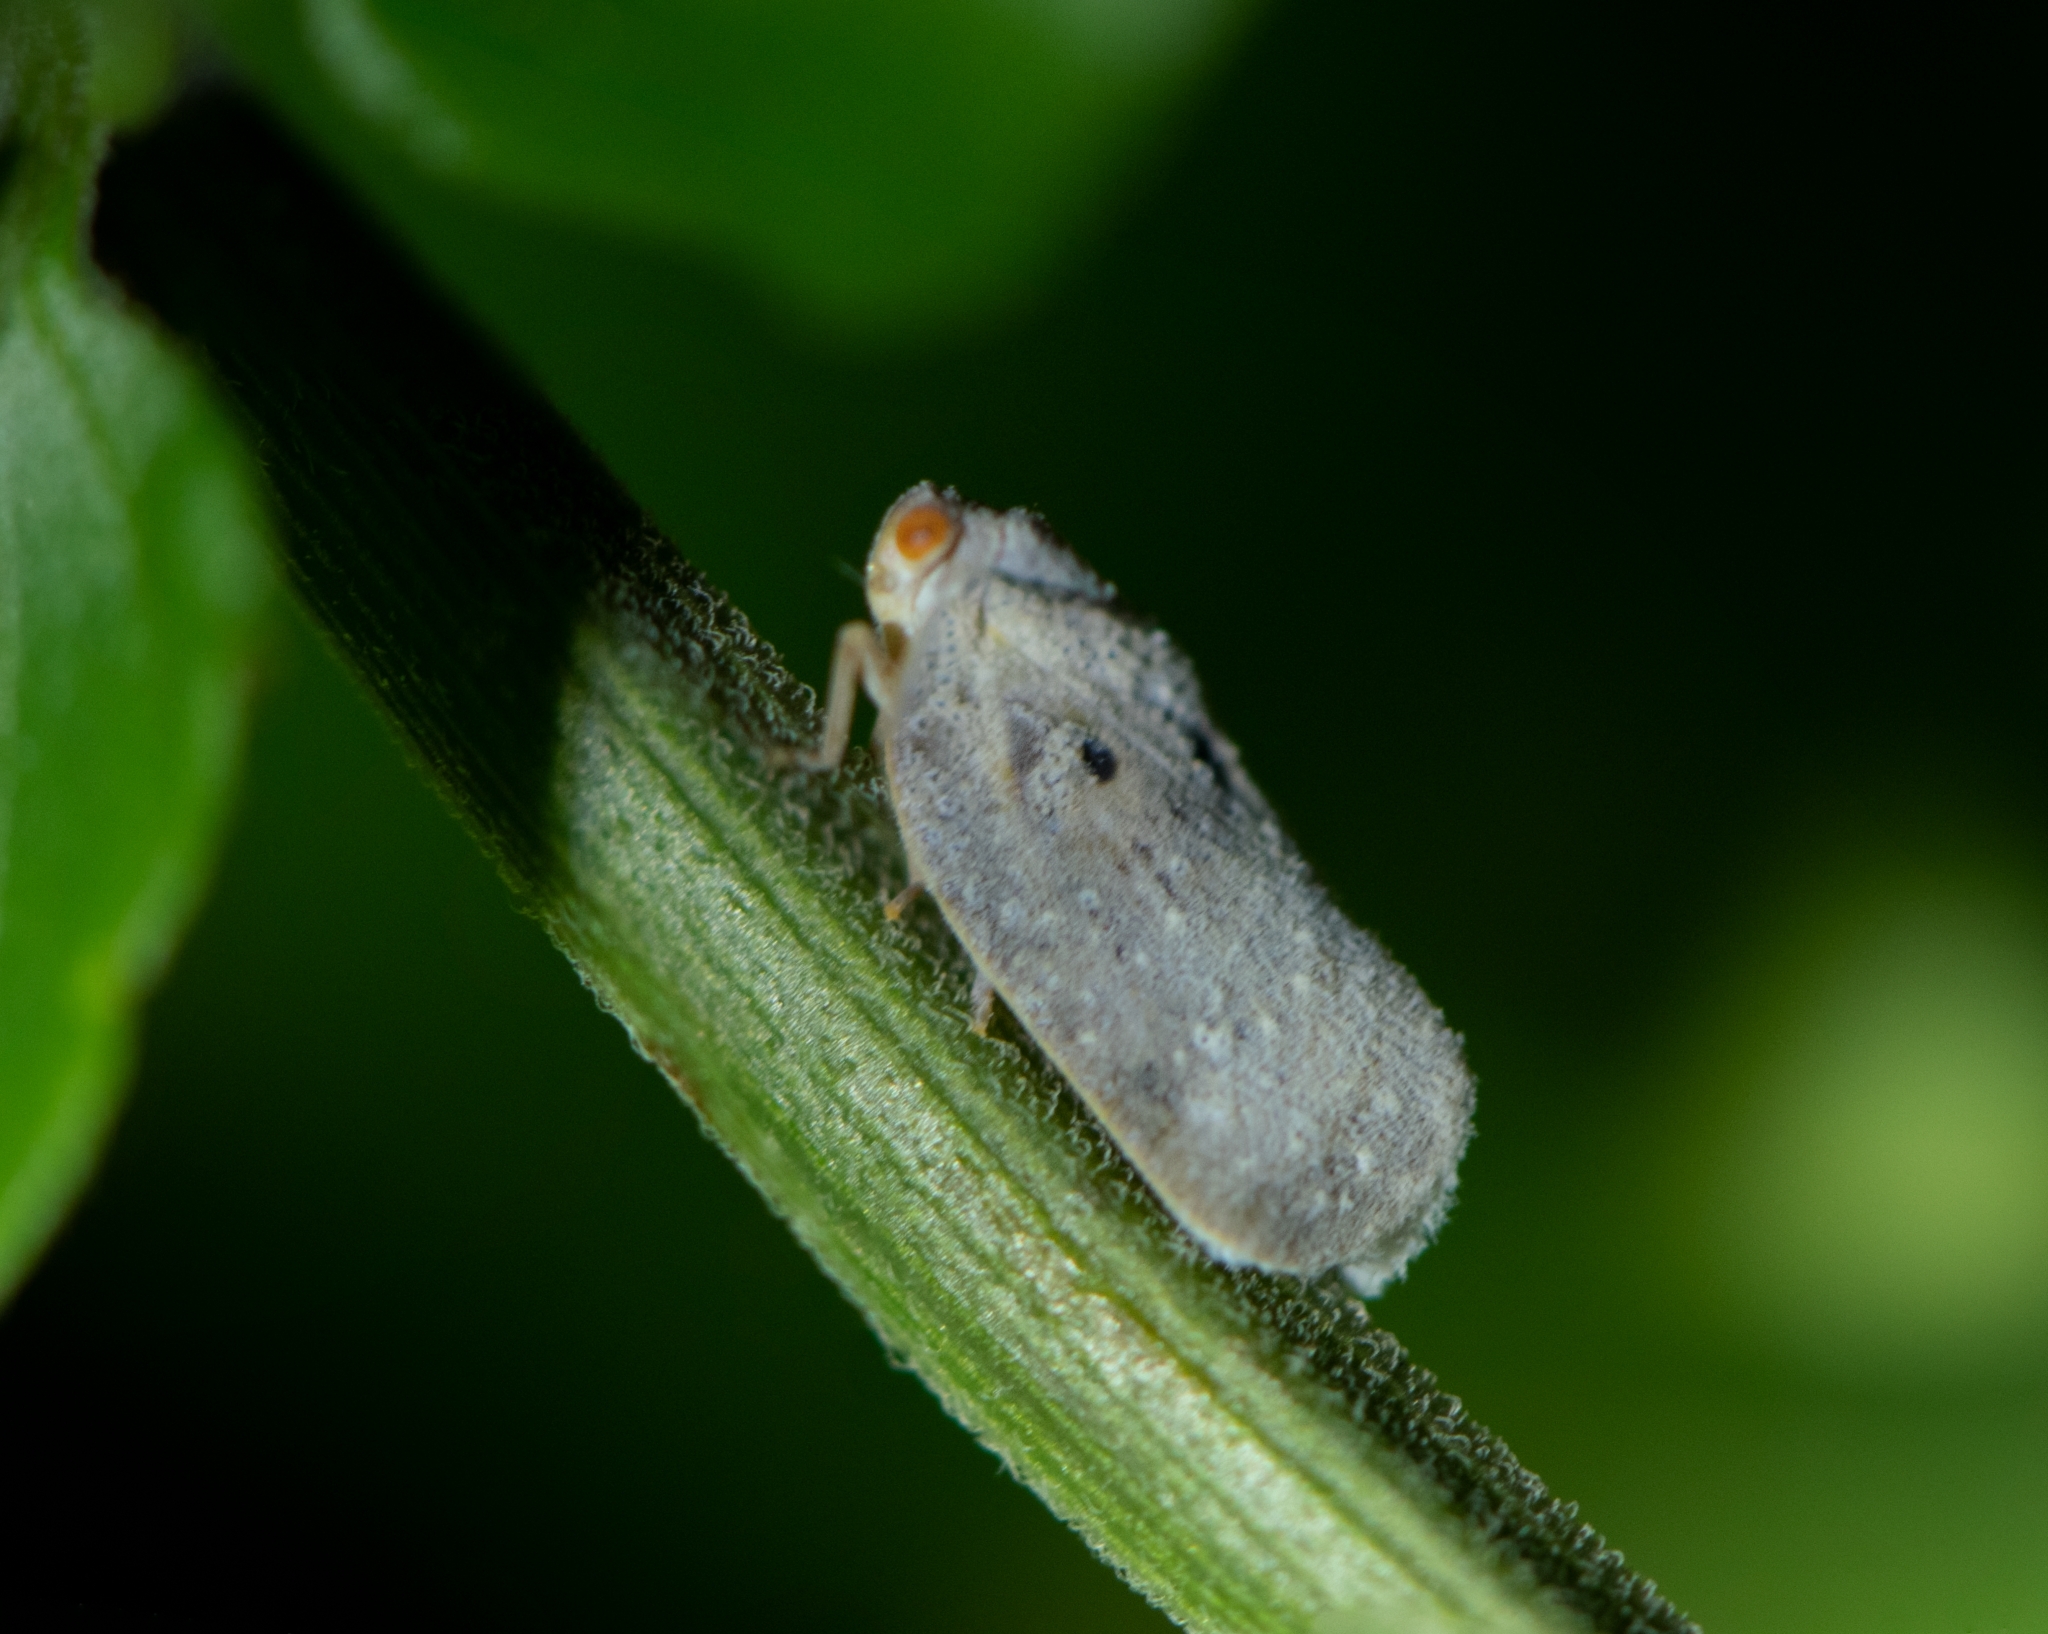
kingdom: Animalia
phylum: Arthropoda
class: Insecta
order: Hemiptera
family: Flatidae
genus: Melormenis
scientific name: Melormenis basalis
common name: Puerto rican planthopper
